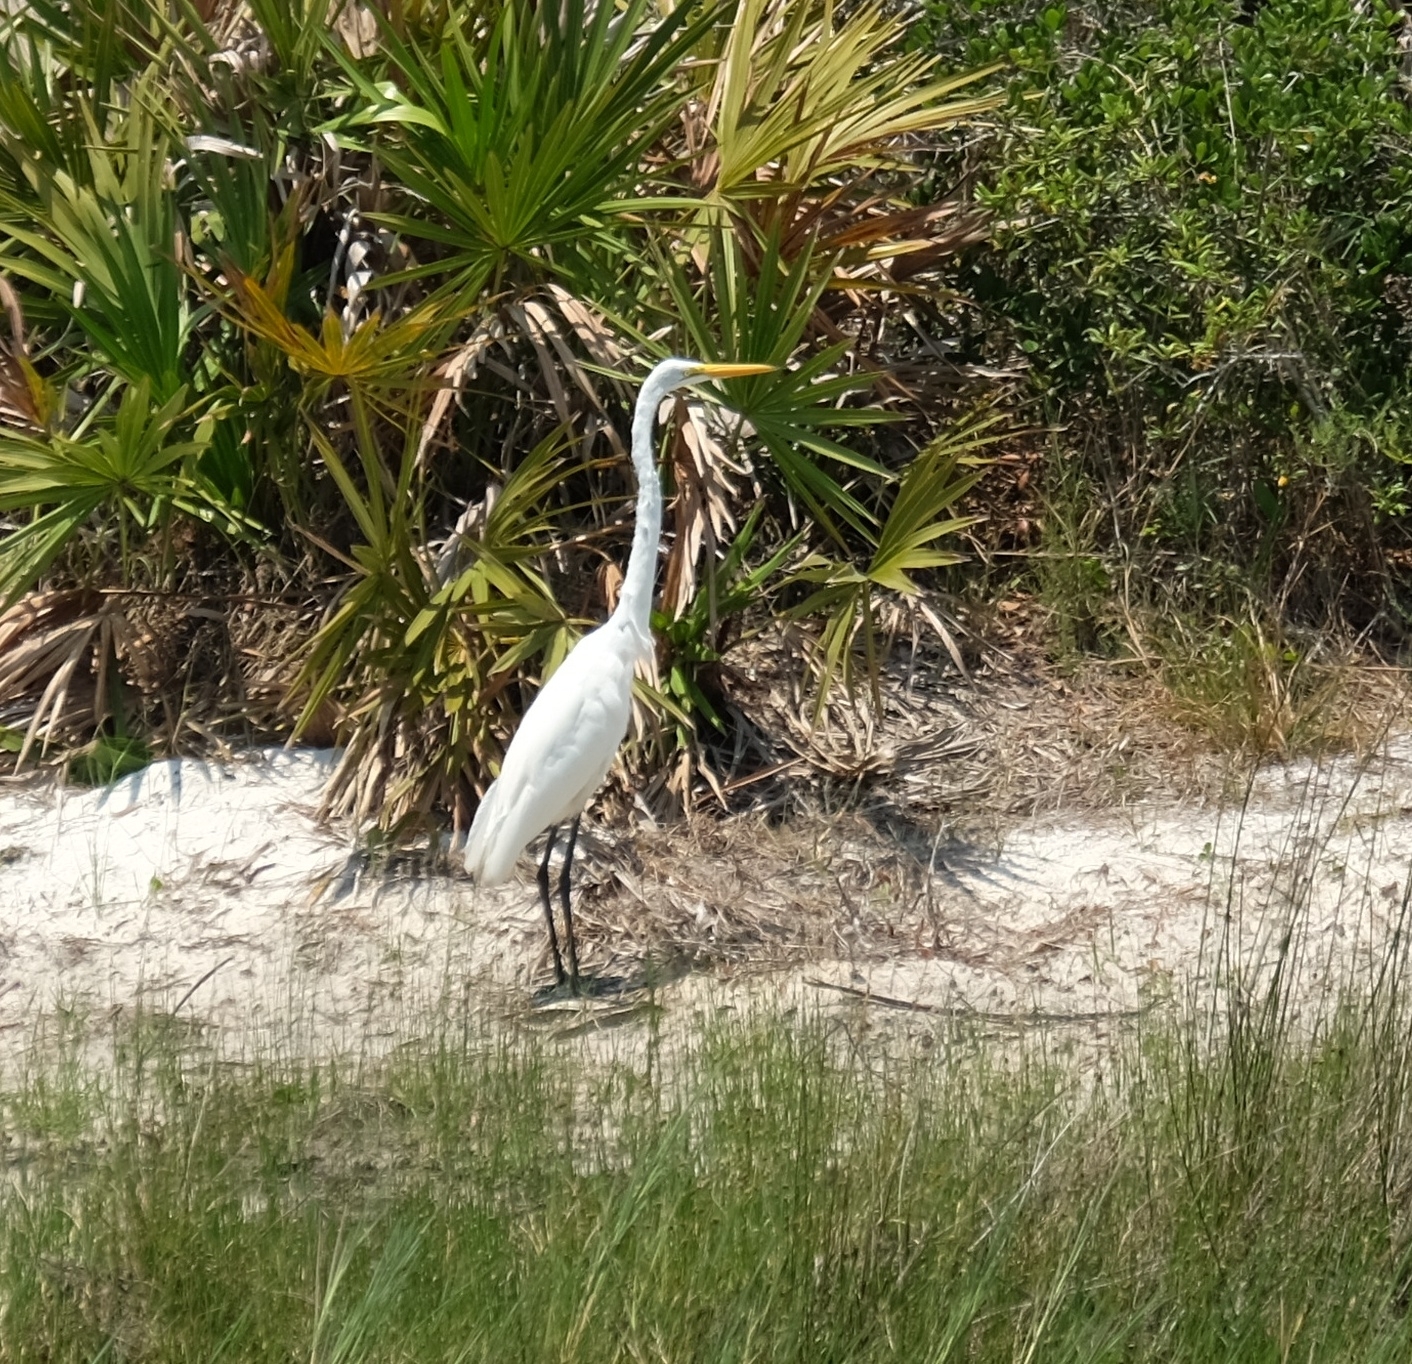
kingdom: Animalia
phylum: Chordata
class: Aves
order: Pelecaniformes
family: Ardeidae
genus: Ardea
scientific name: Ardea alba
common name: Great egret
